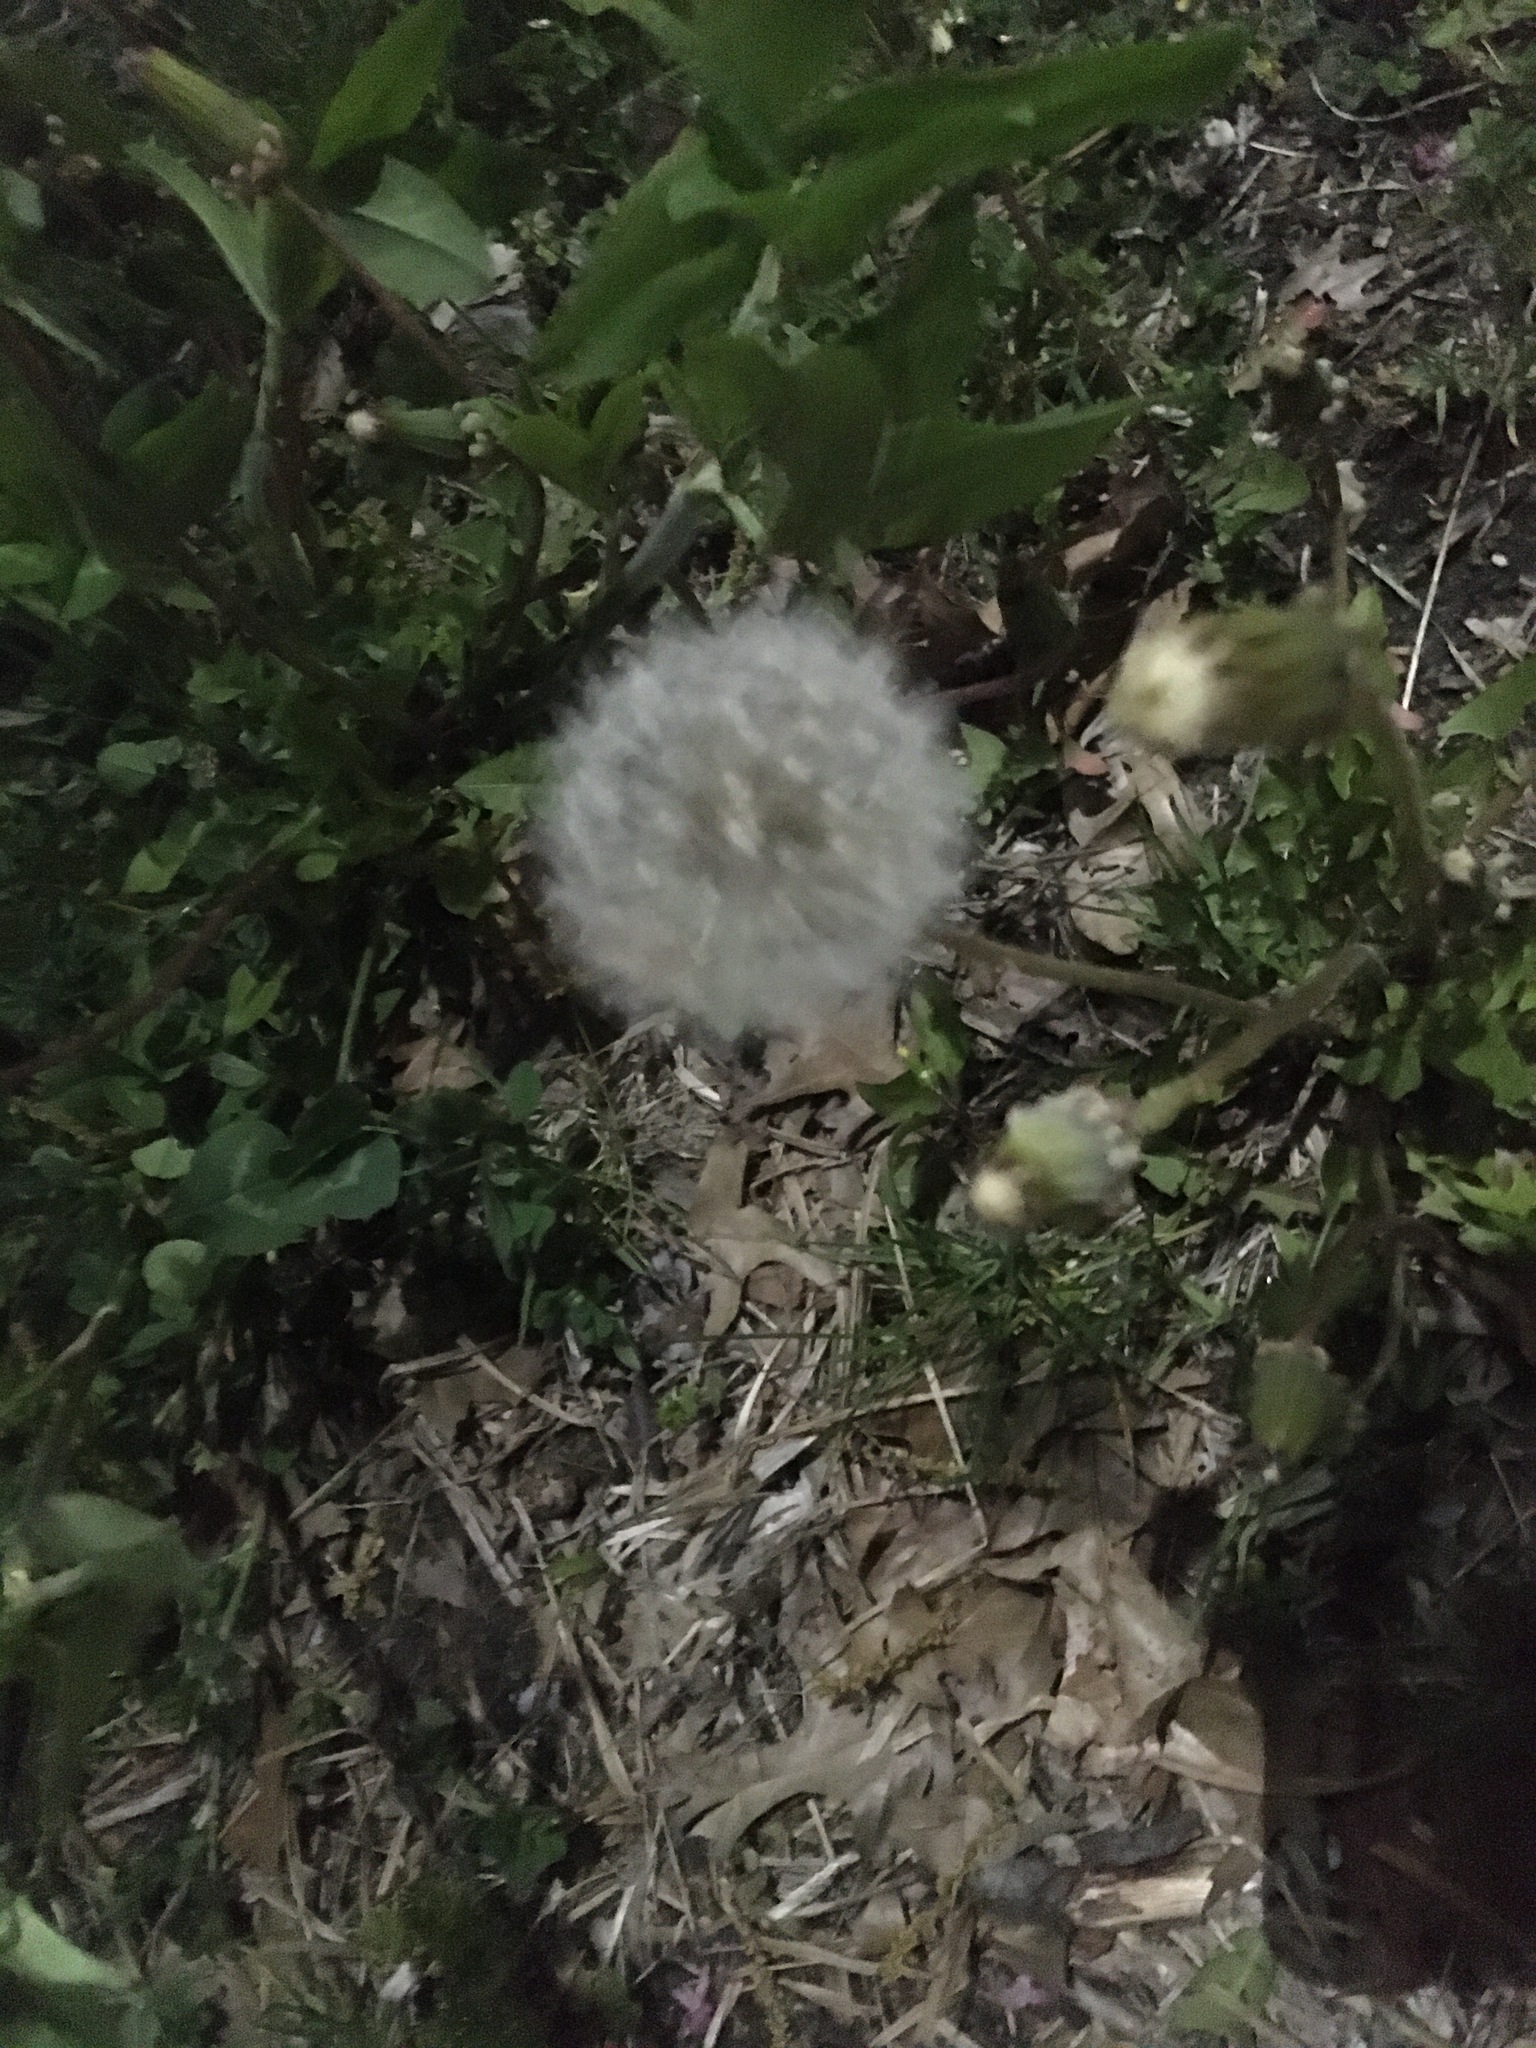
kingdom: Plantae
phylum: Tracheophyta
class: Magnoliopsida
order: Asterales
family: Asteraceae
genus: Taraxacum
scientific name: Taraxacum officinale
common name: Common dandelion
